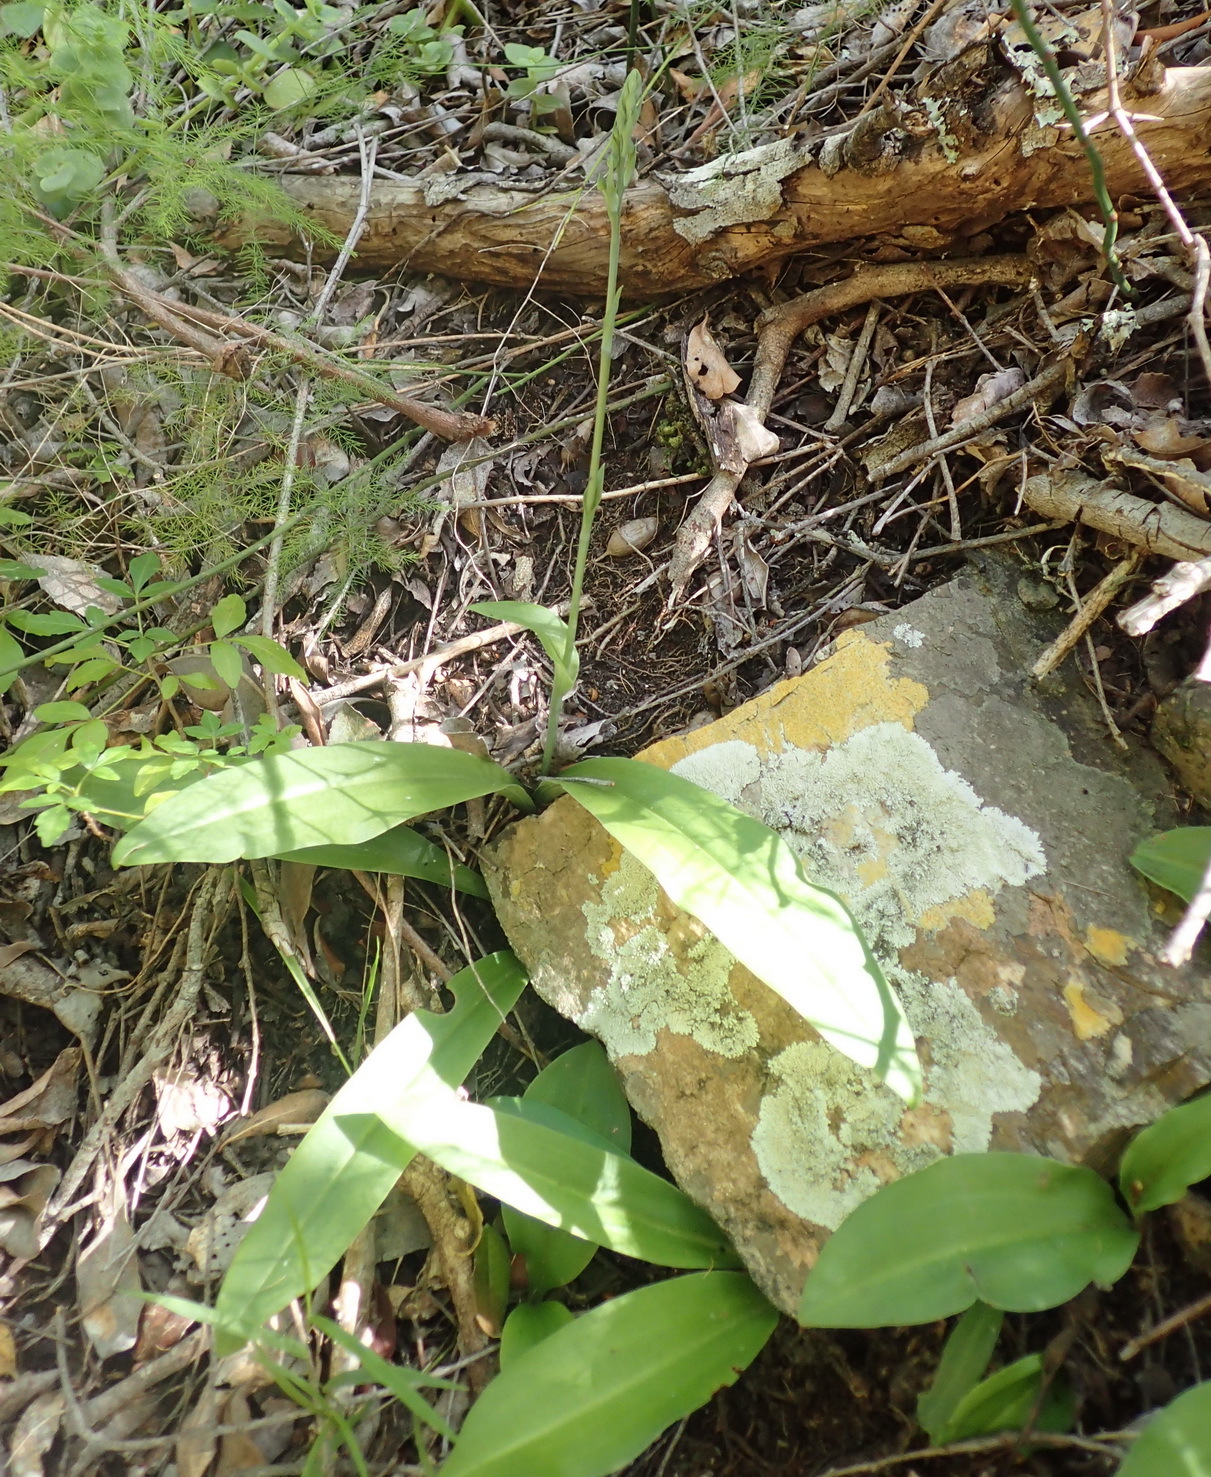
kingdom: Plantae
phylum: Tracheophyta
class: Liliopsida
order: Asparagales
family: Orchidaceae
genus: Habenaria
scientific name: Habenaria arenaria
